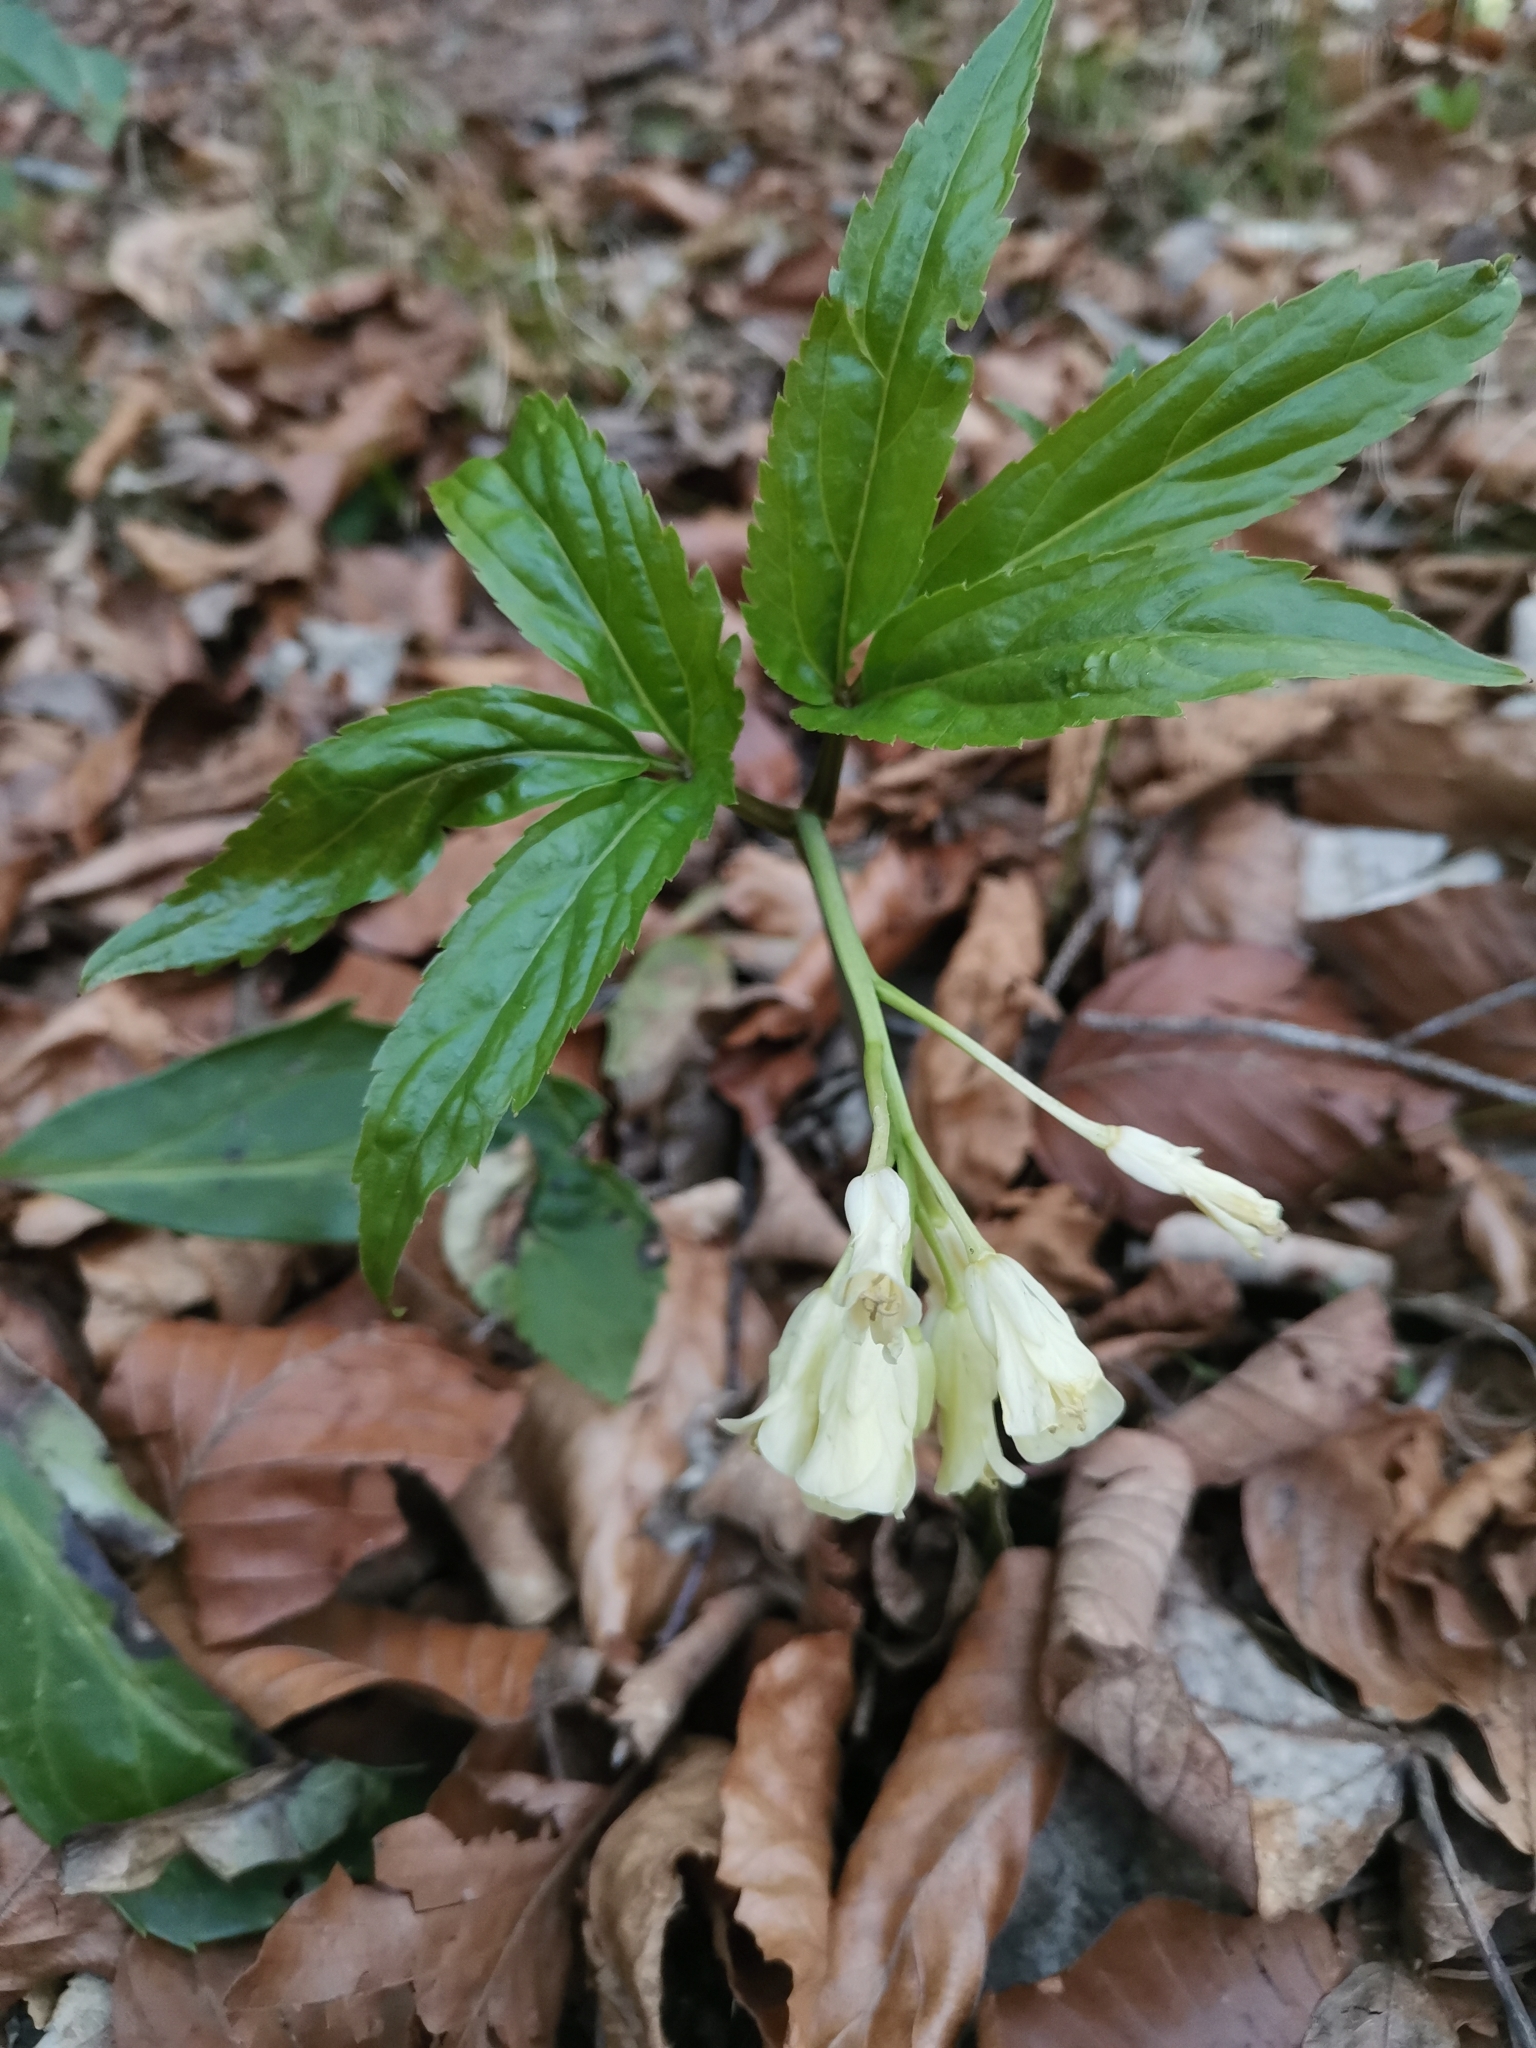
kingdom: Plantae
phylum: Tracheophyta
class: Magnoliopsida
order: Brassicales
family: Brassicaceae
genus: Cardamine
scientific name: Cardamine enneaphyllos
